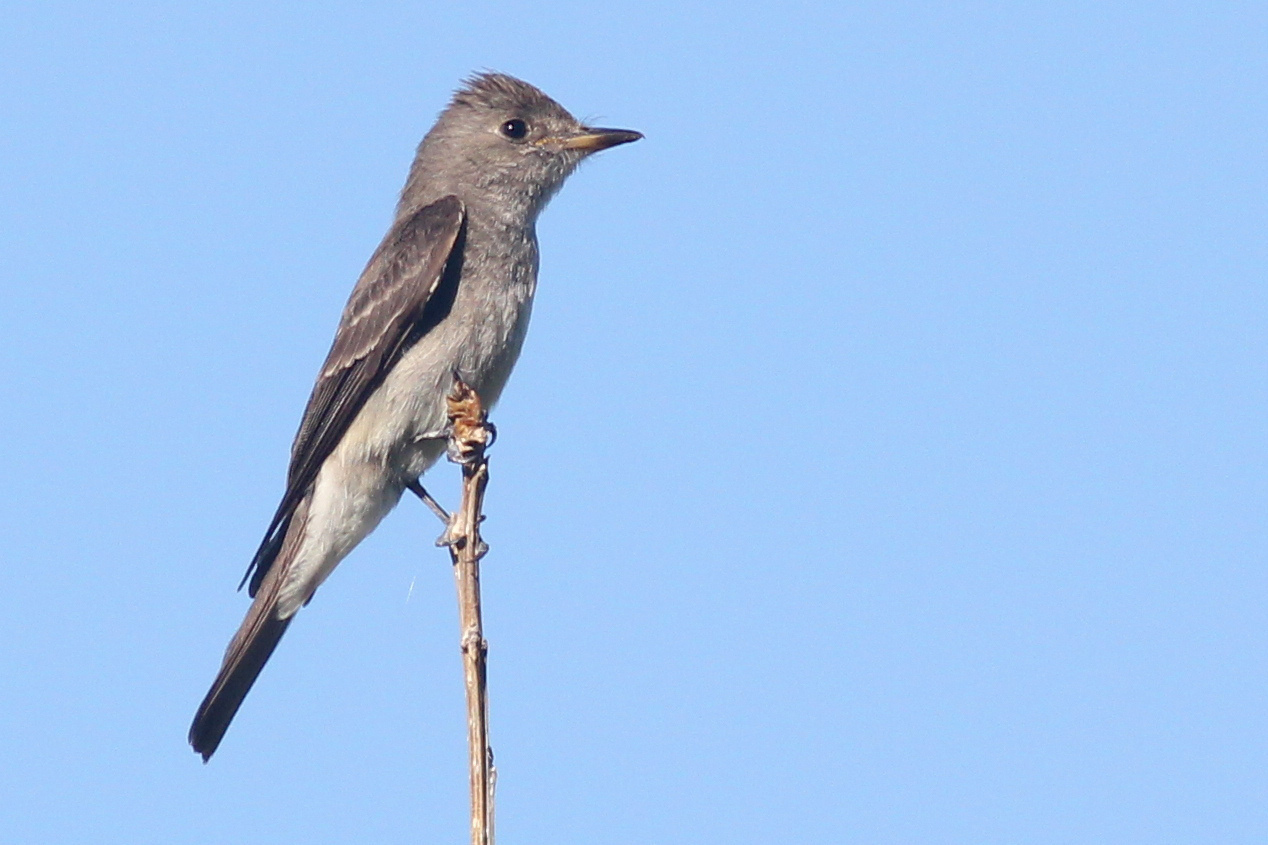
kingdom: Animalia
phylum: Chordata
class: Aves
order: Passeriformes
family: Tyrannidae
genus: Contopus
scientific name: Contopus sordidulus
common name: Western wood-pewee
